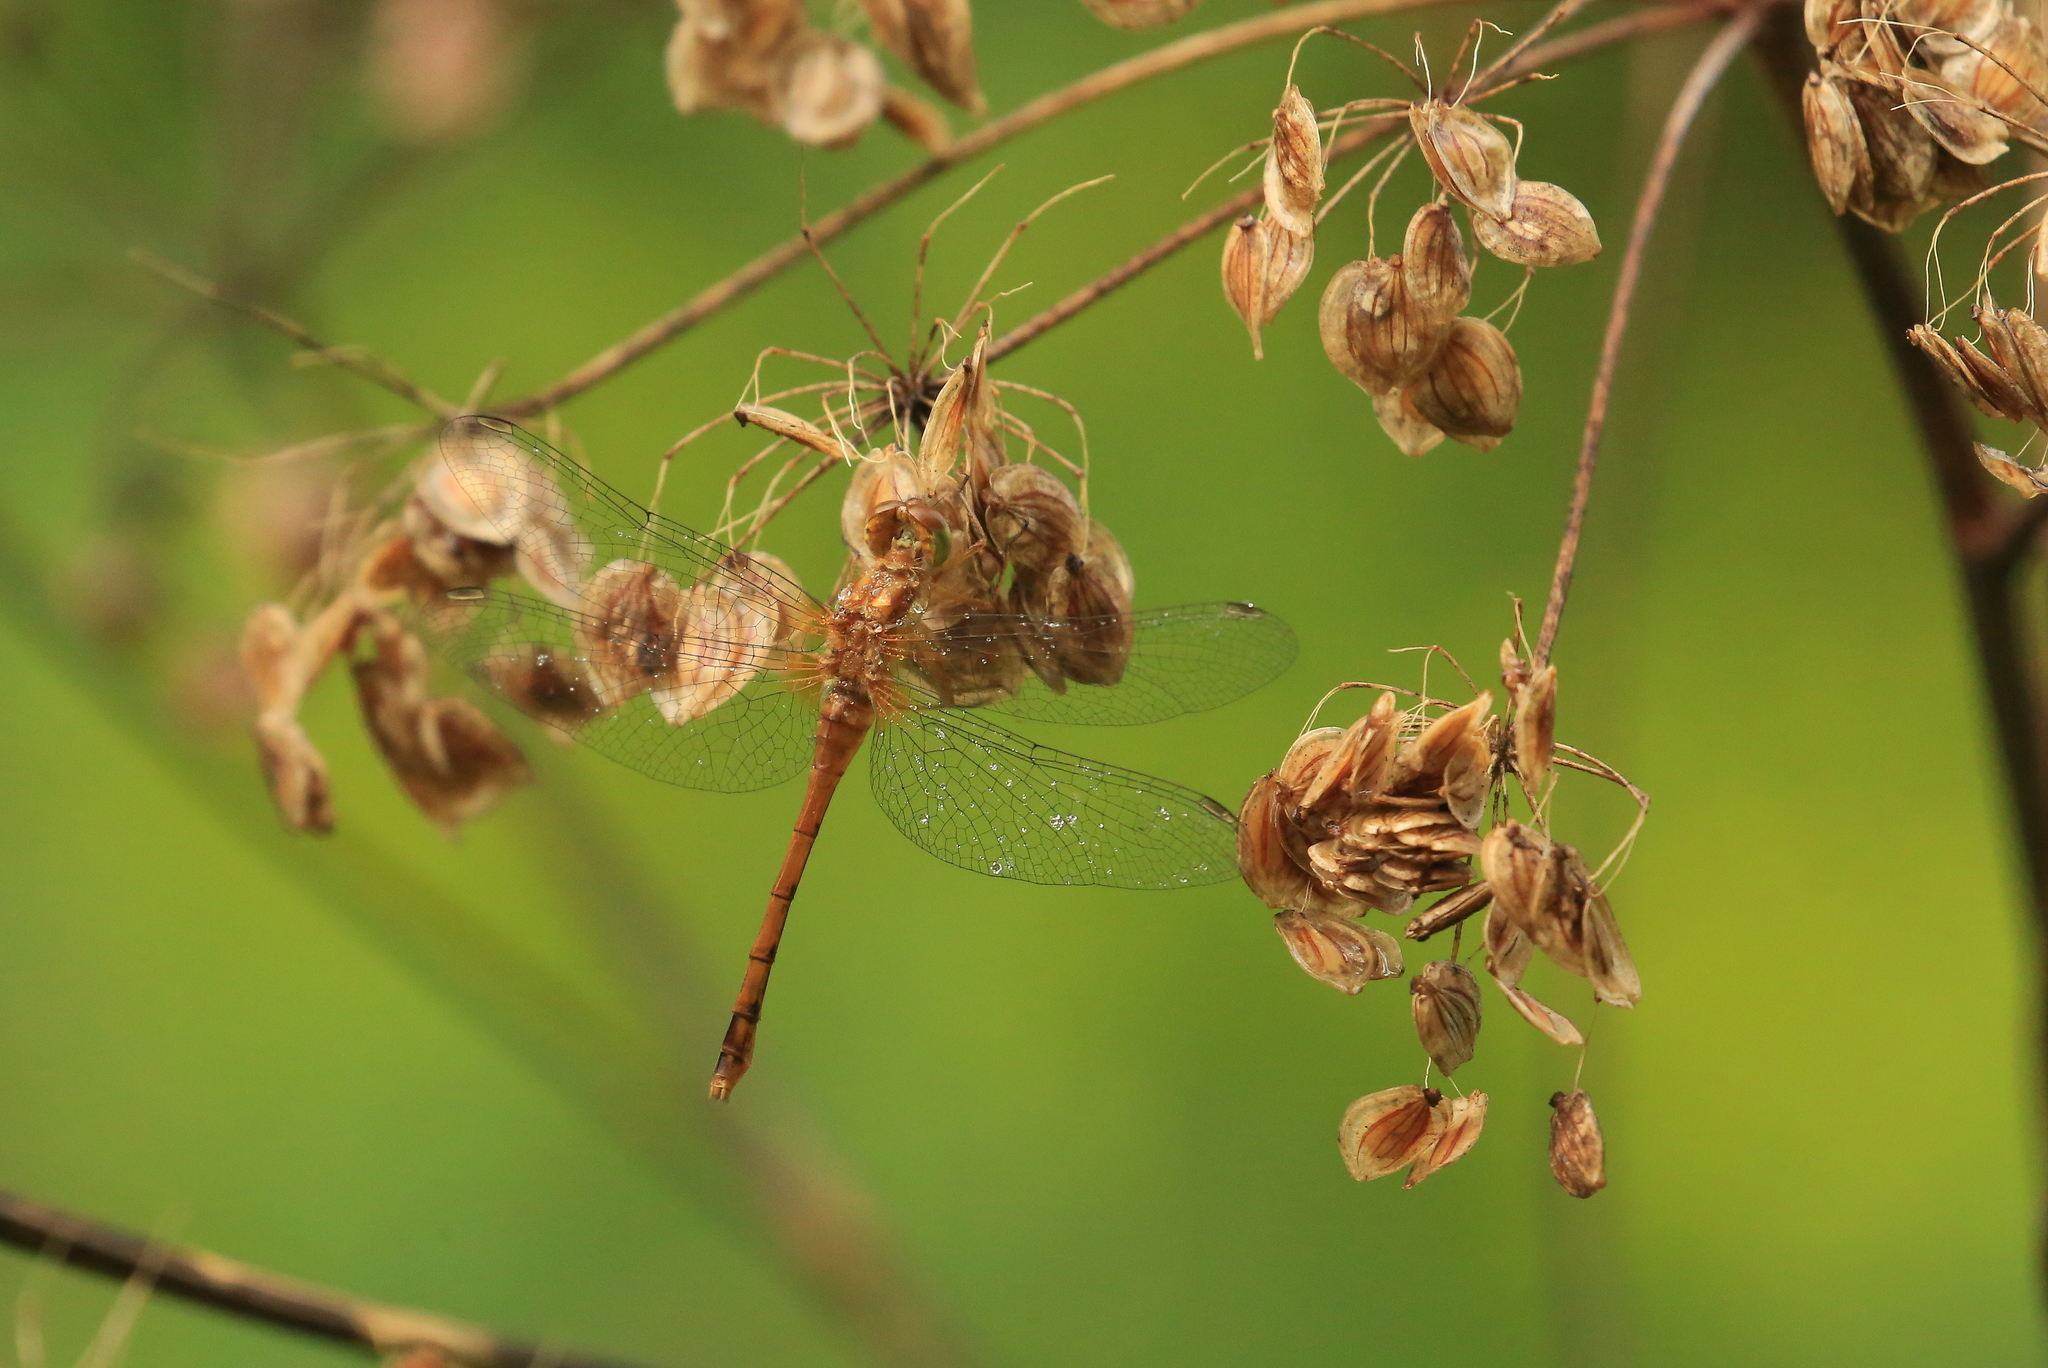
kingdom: Animalia
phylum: Arthropoda
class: Insecta
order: Odonata
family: Libellulidae
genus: Sympetrum
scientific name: Sympetrum vicinum
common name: Autumn meadowhawk
